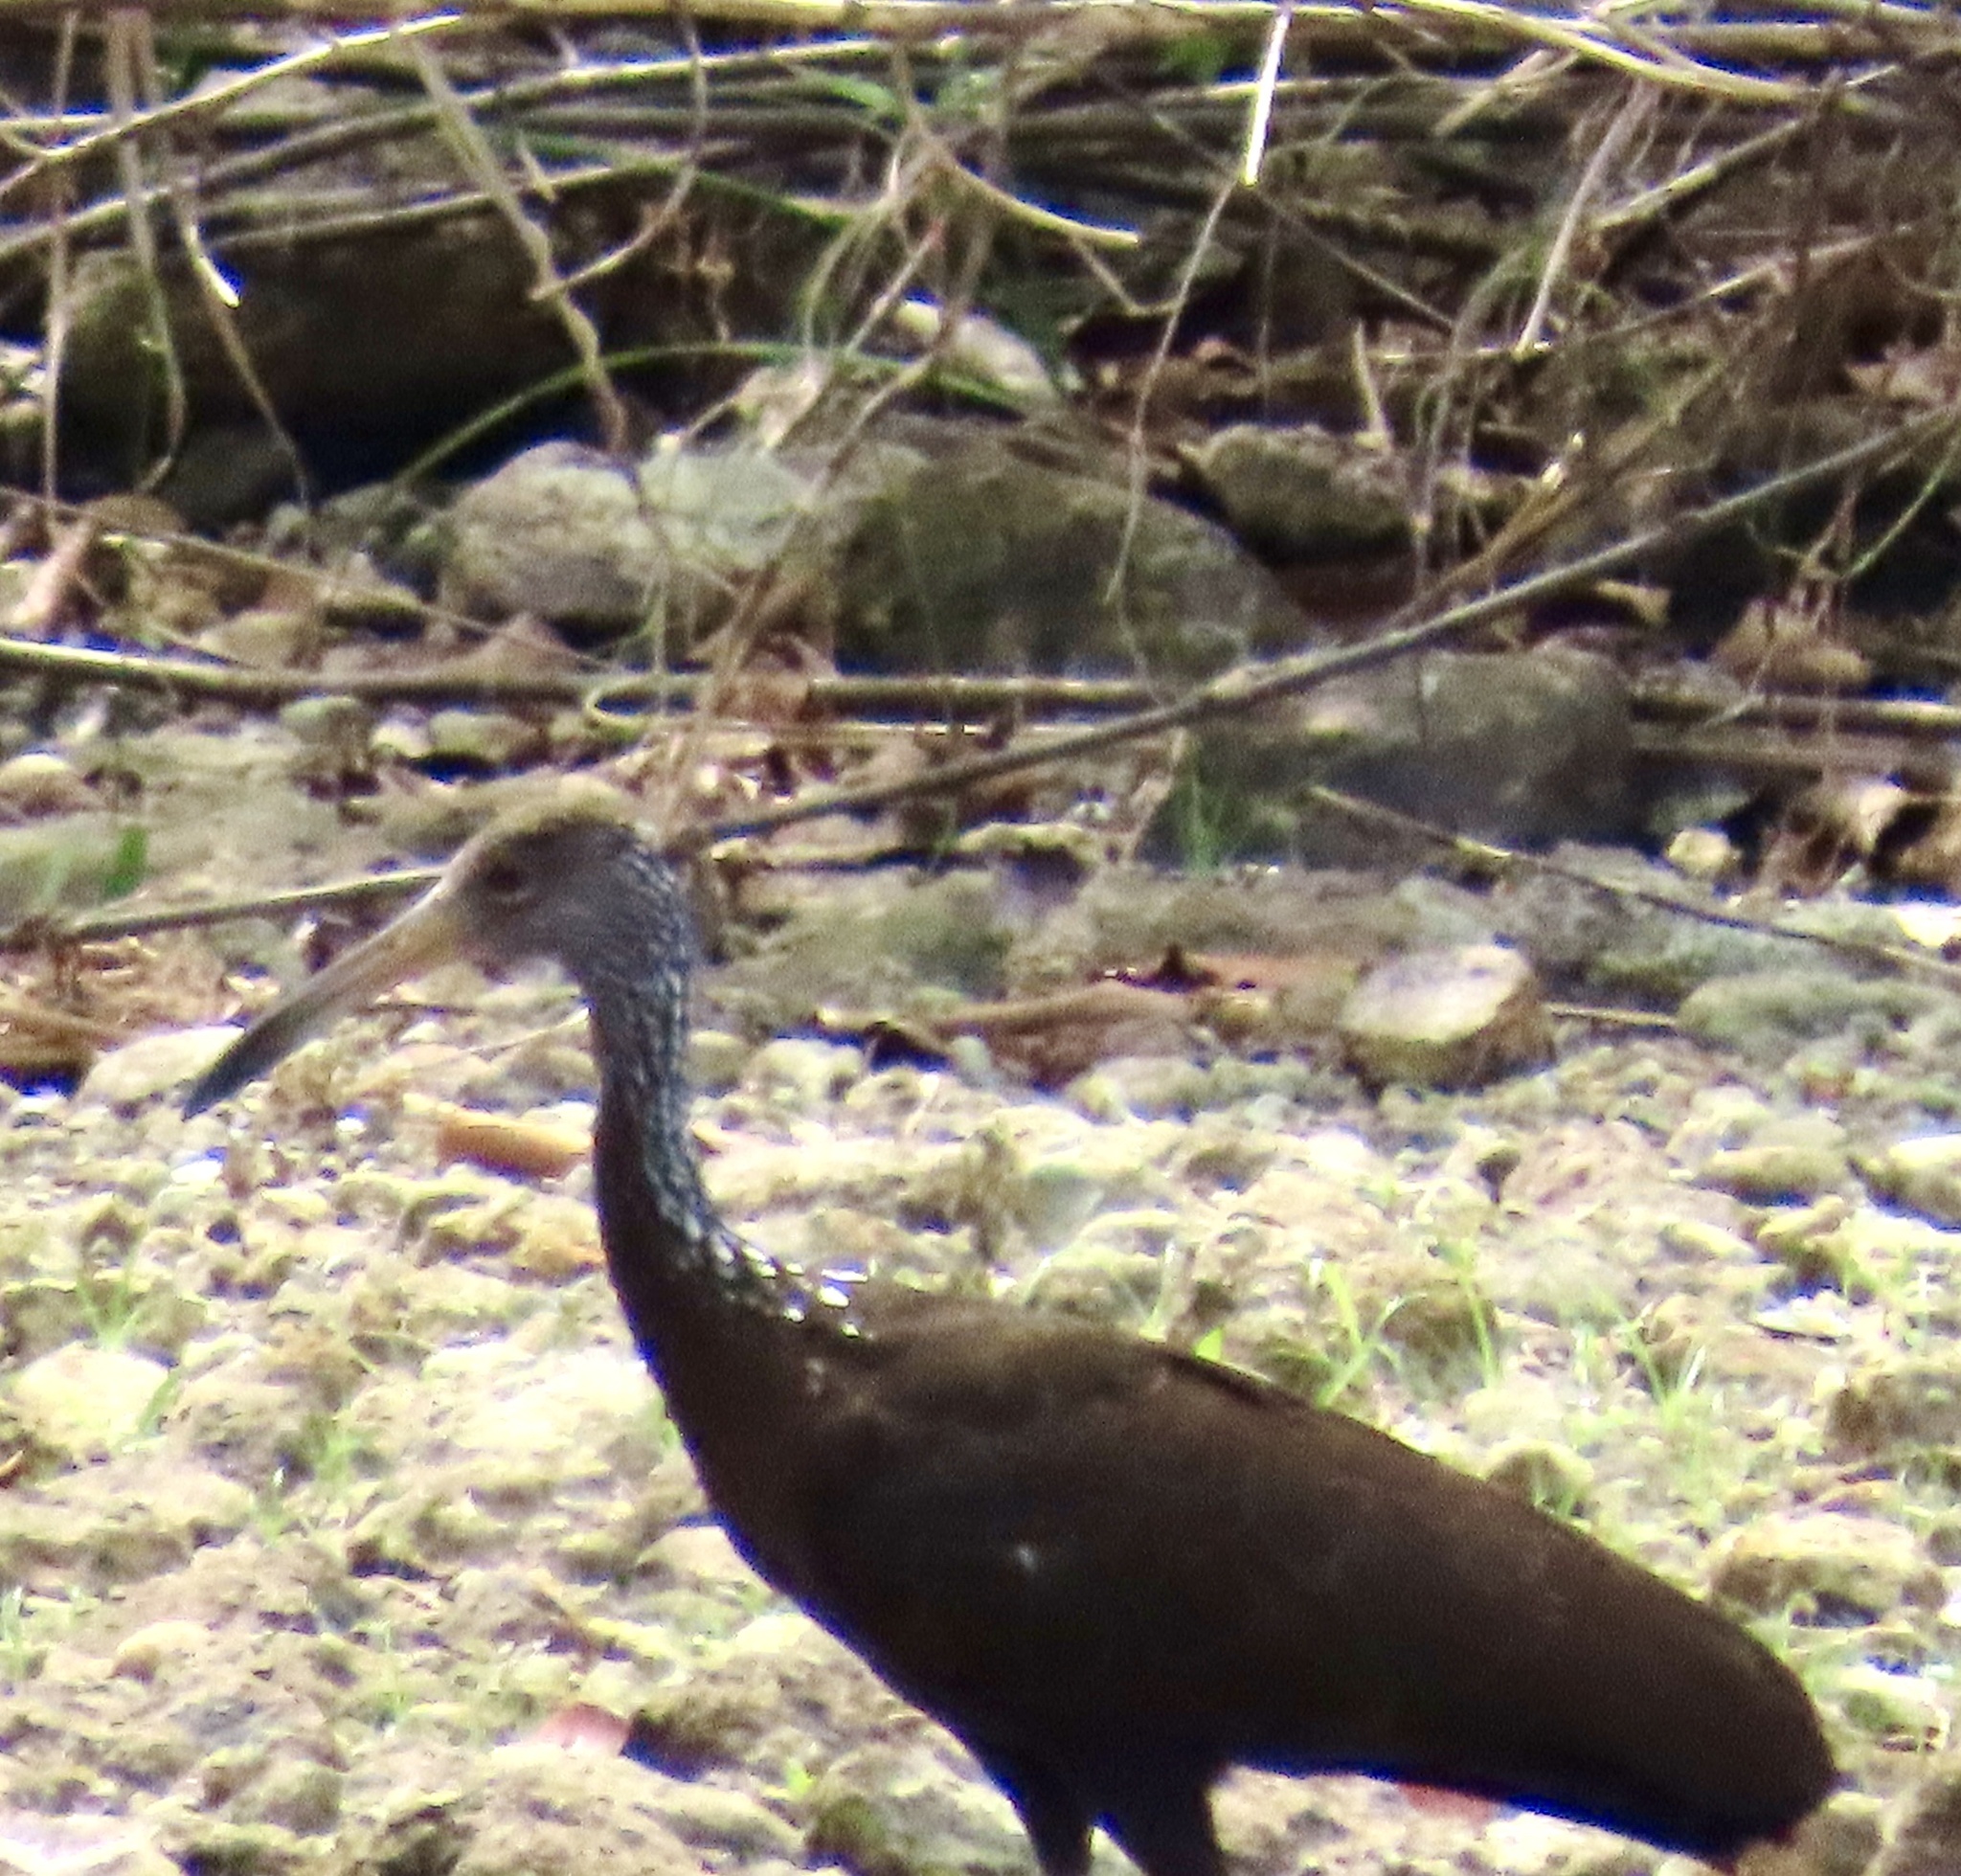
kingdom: Animalia
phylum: Chordata
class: Aves
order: Gruiformes
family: Aramidae
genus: Aramus
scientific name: Aramus guarauna
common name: Limpkin
